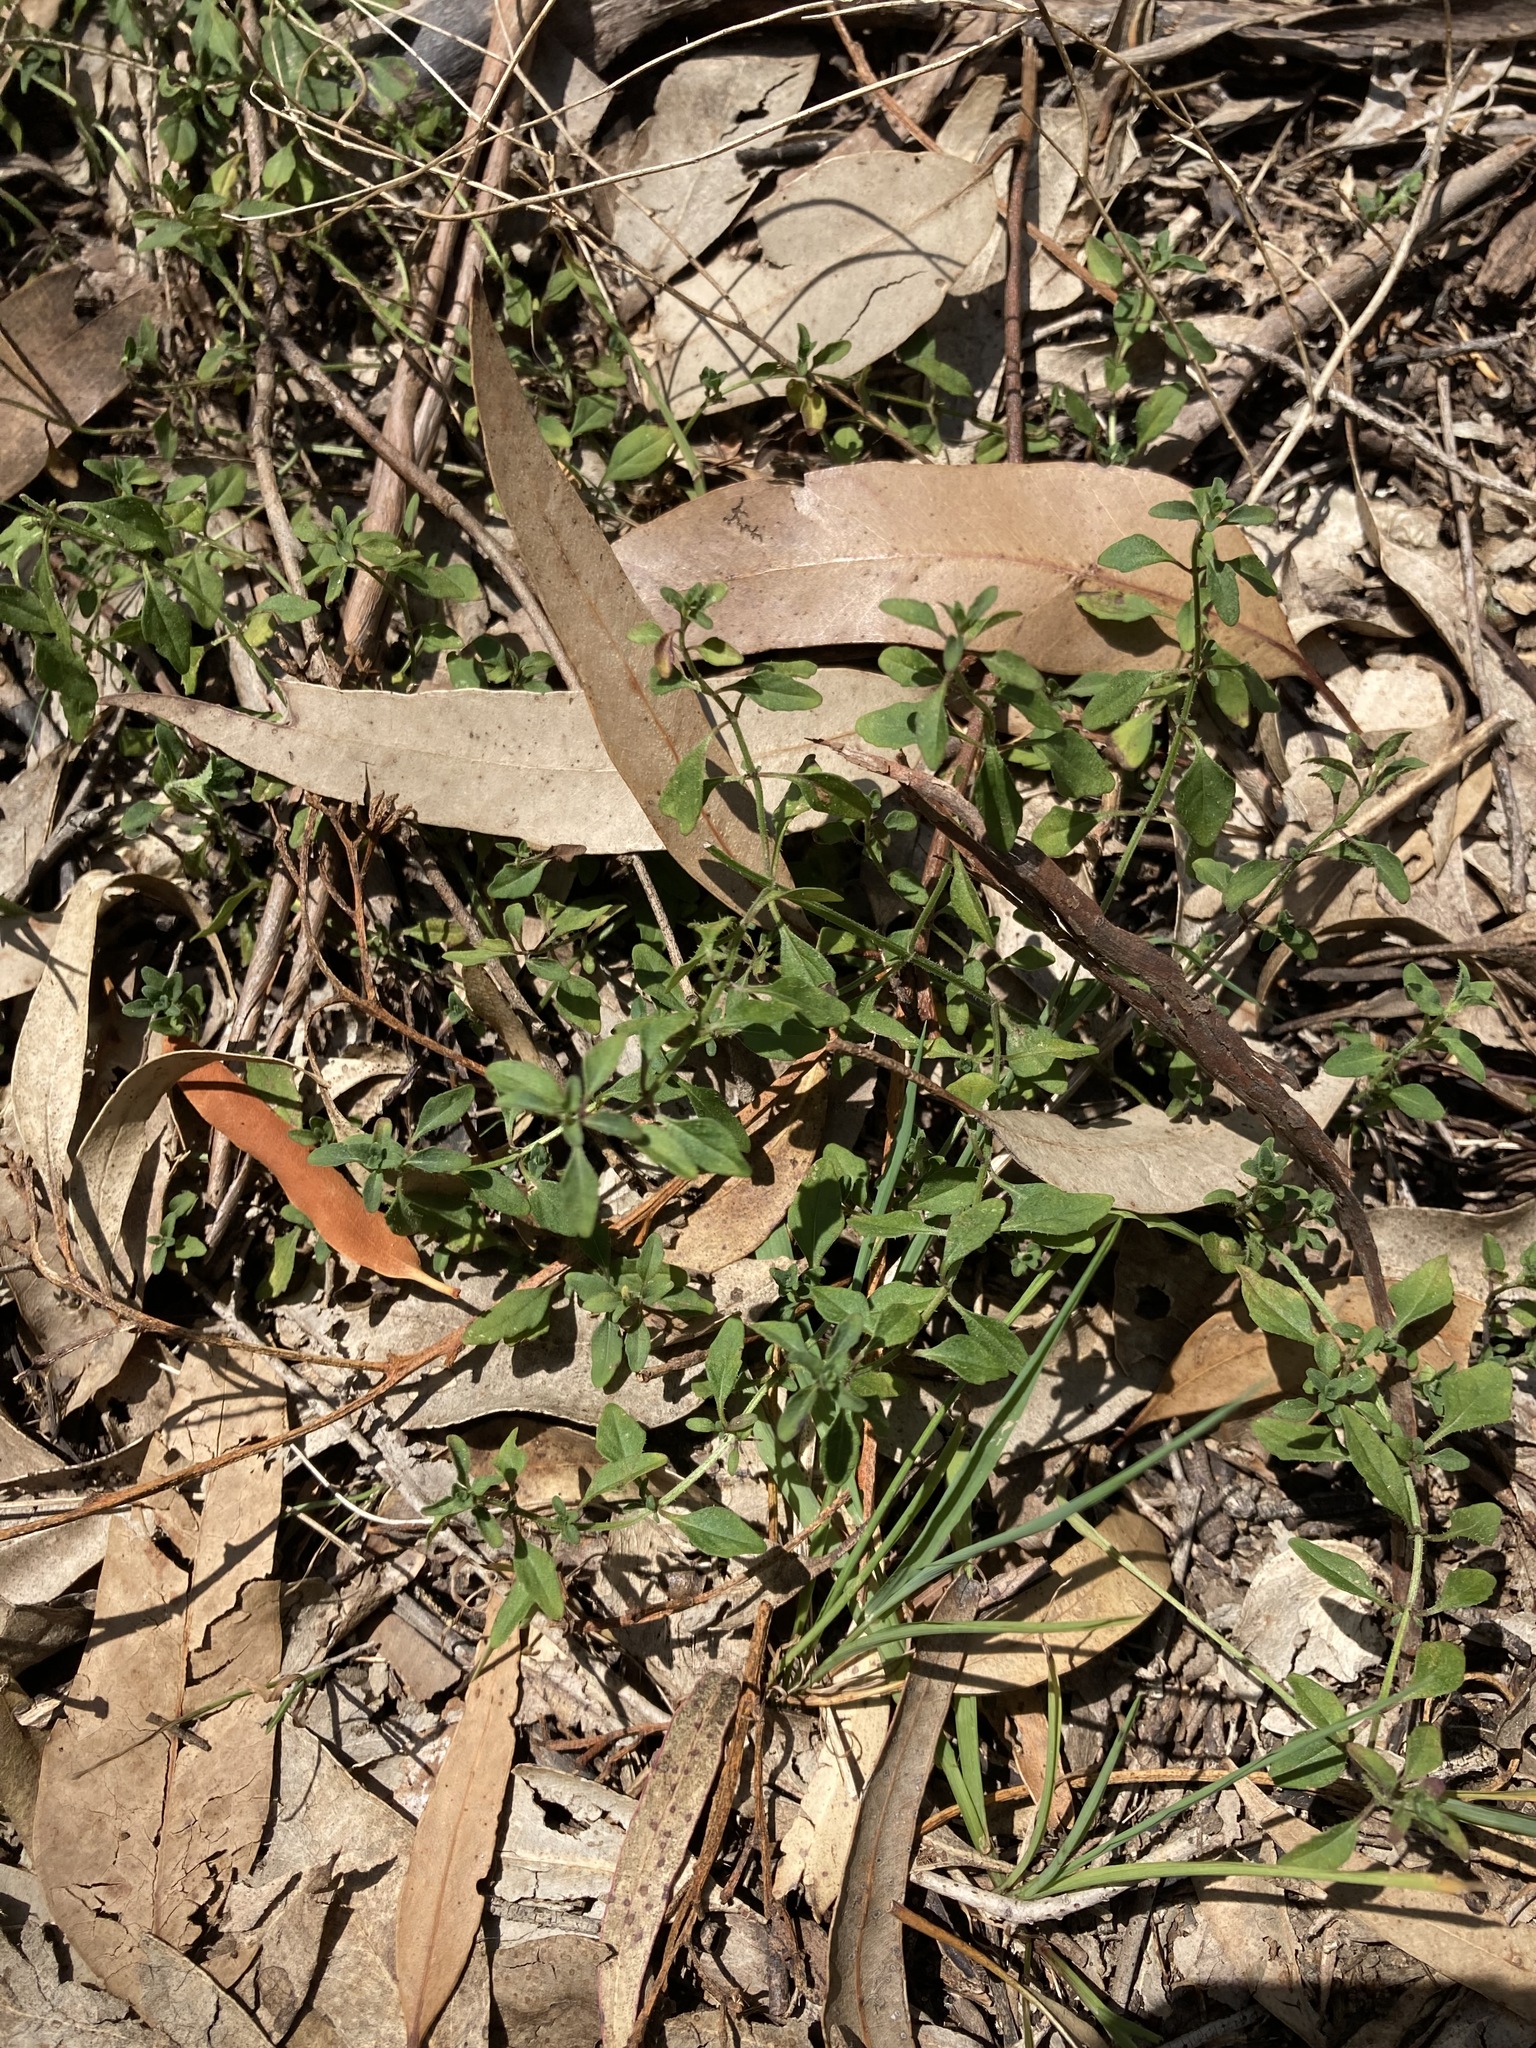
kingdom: Plantae
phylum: Tracheophyta
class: Magnoliopsida
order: Lamiales
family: Lamiaceae
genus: Mentha
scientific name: Mentha diemenica
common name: Wild mint
